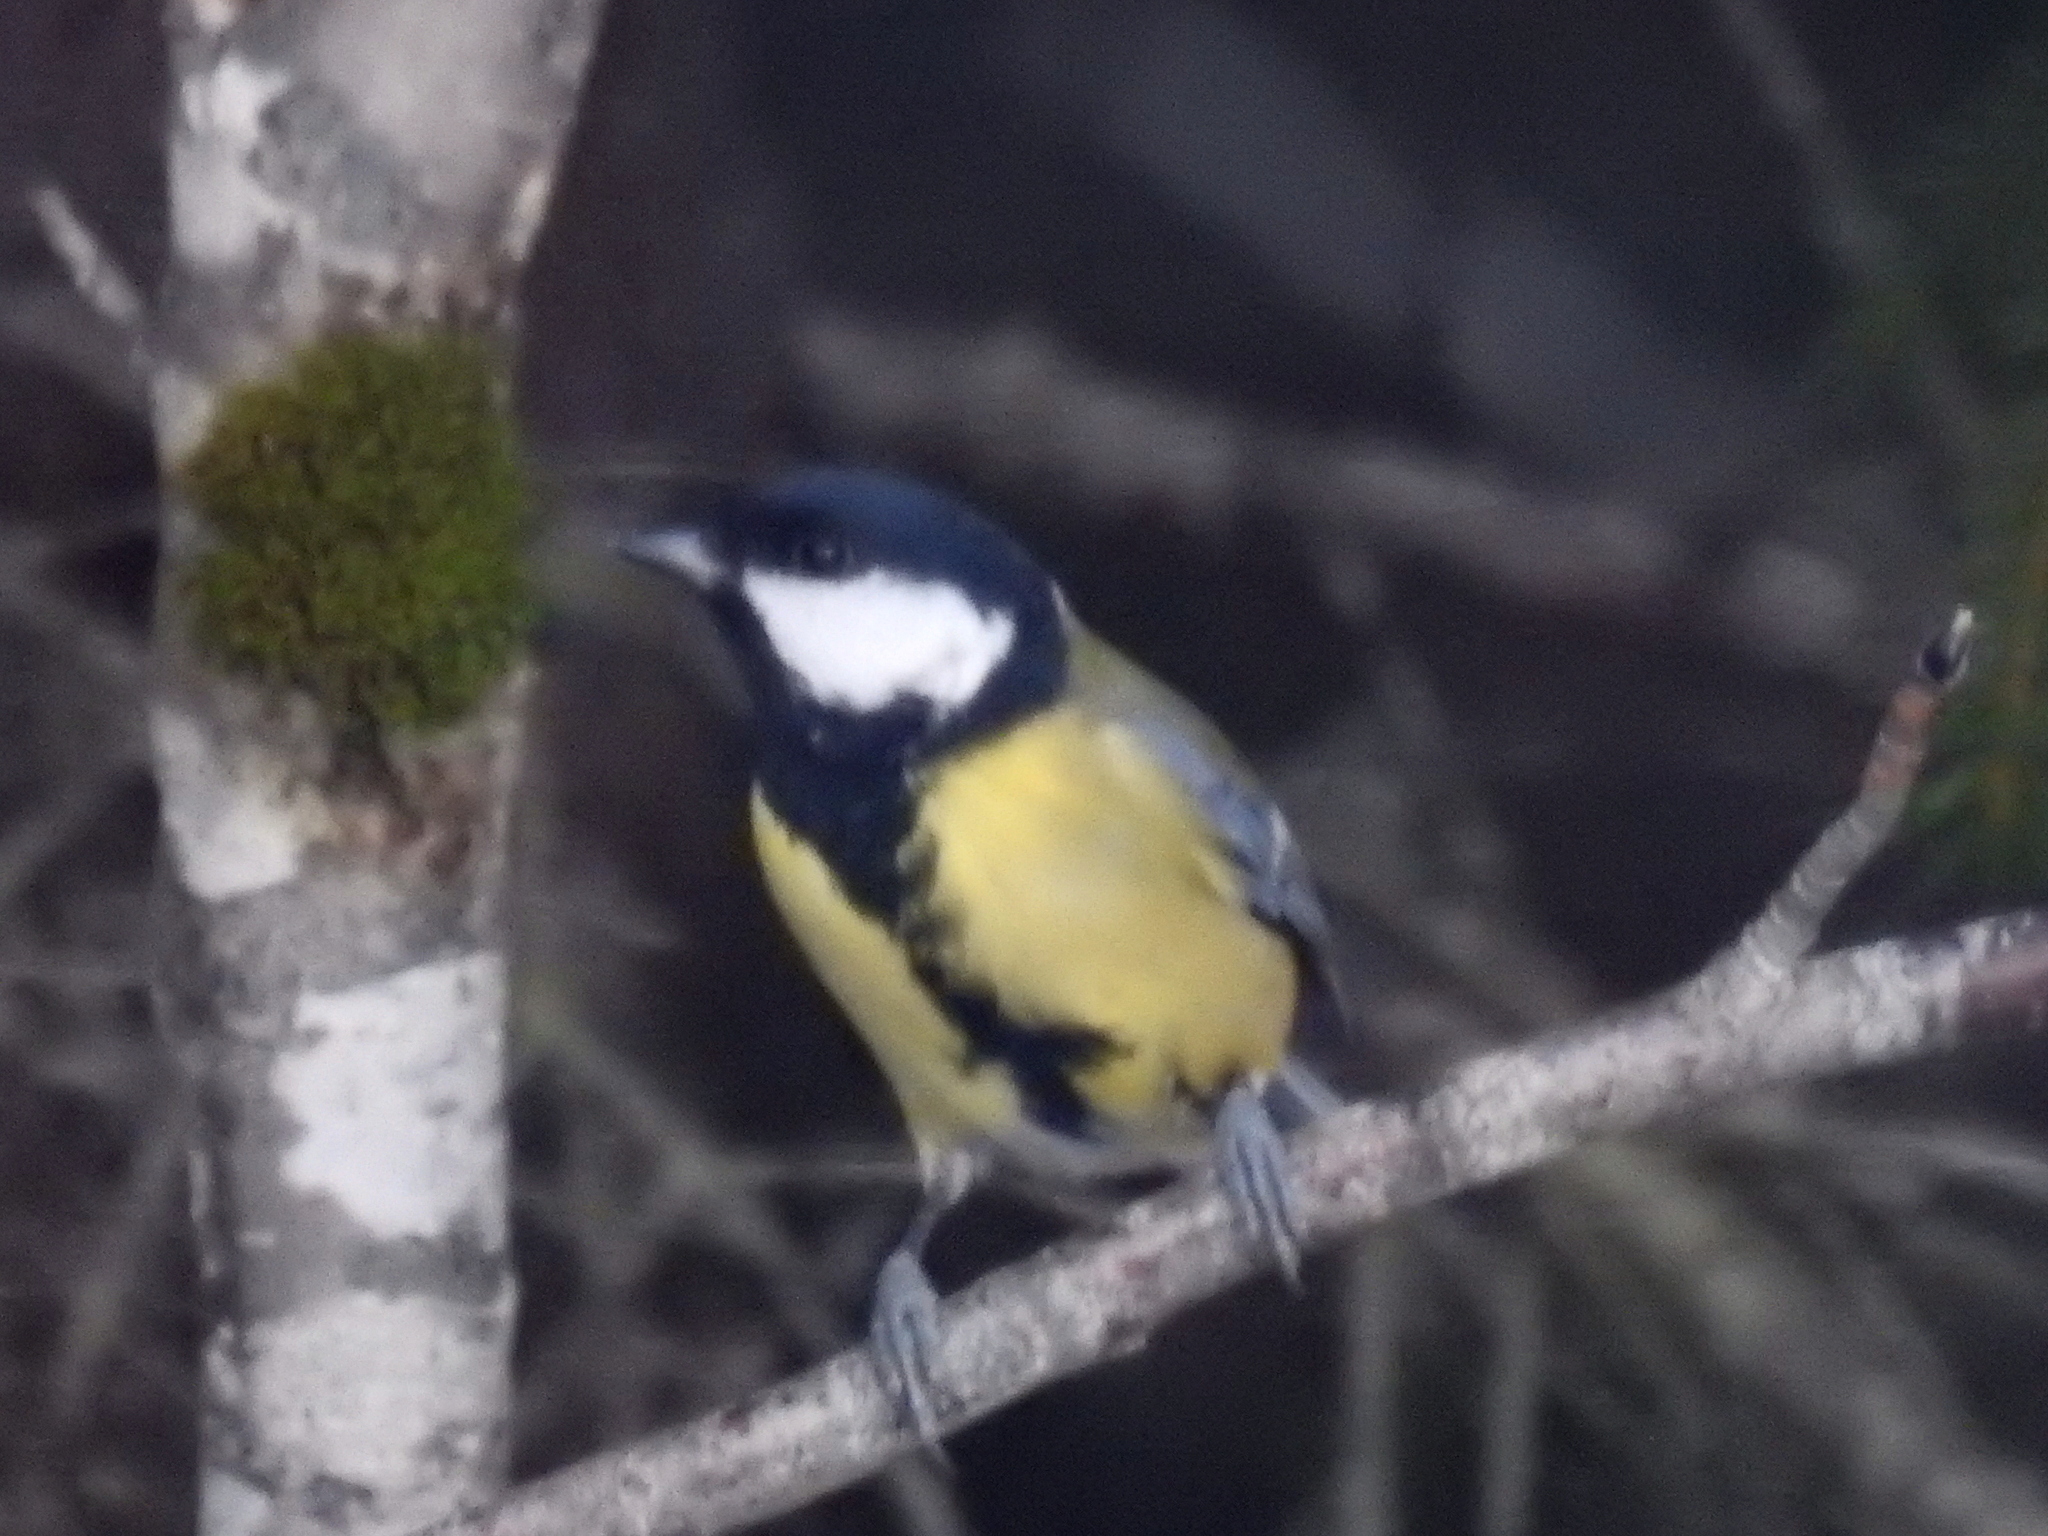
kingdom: Animalia
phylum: Chordata
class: Aves
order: Passeriformes
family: Paridae
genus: Parus
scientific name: Parus major
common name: Great tit
